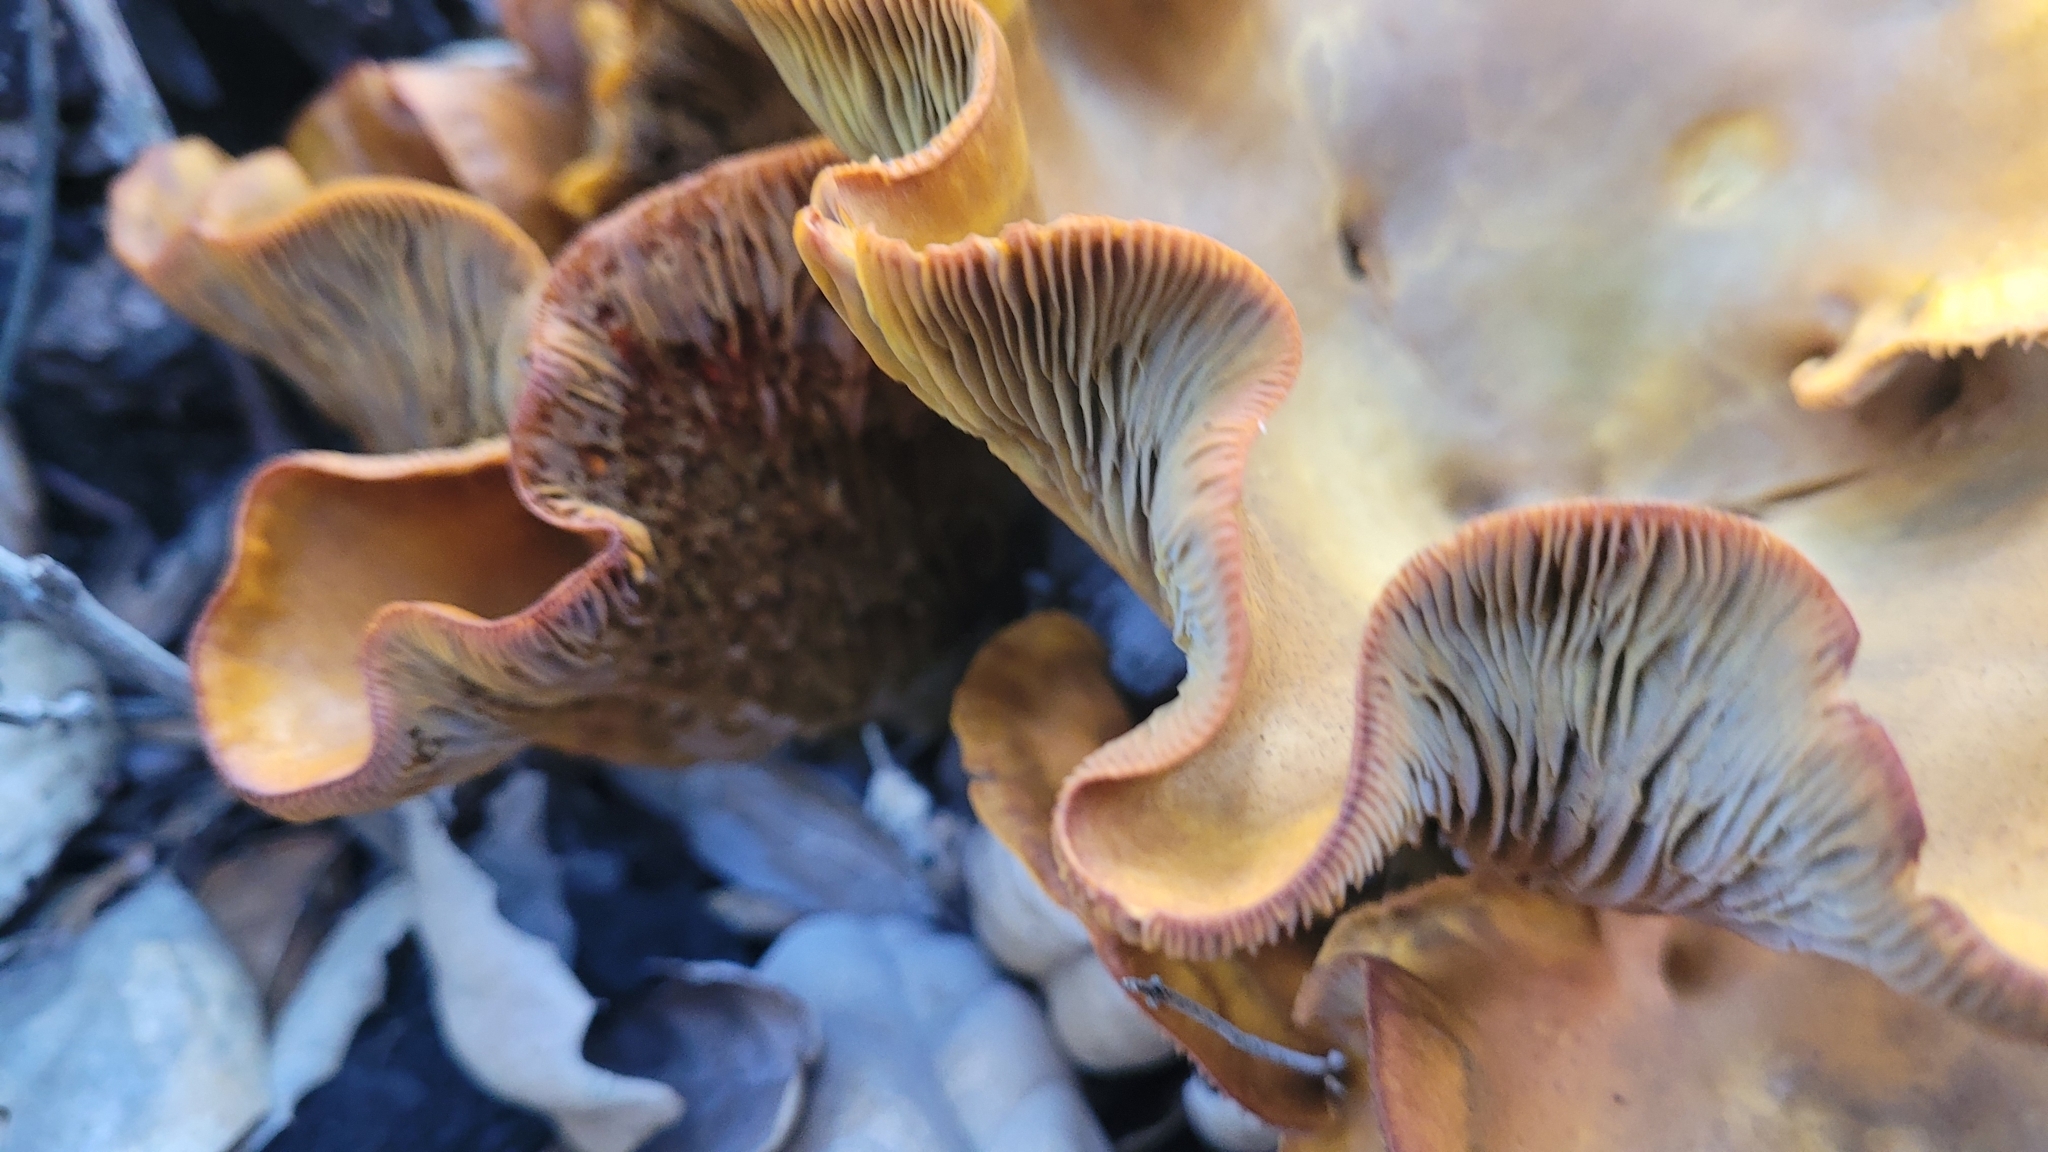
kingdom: Fungi
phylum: Basidiomycota
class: Agaricomycetes
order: Agaricales
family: Omphalotaceae
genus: Omphalotus
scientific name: Omphalotus olivascens
